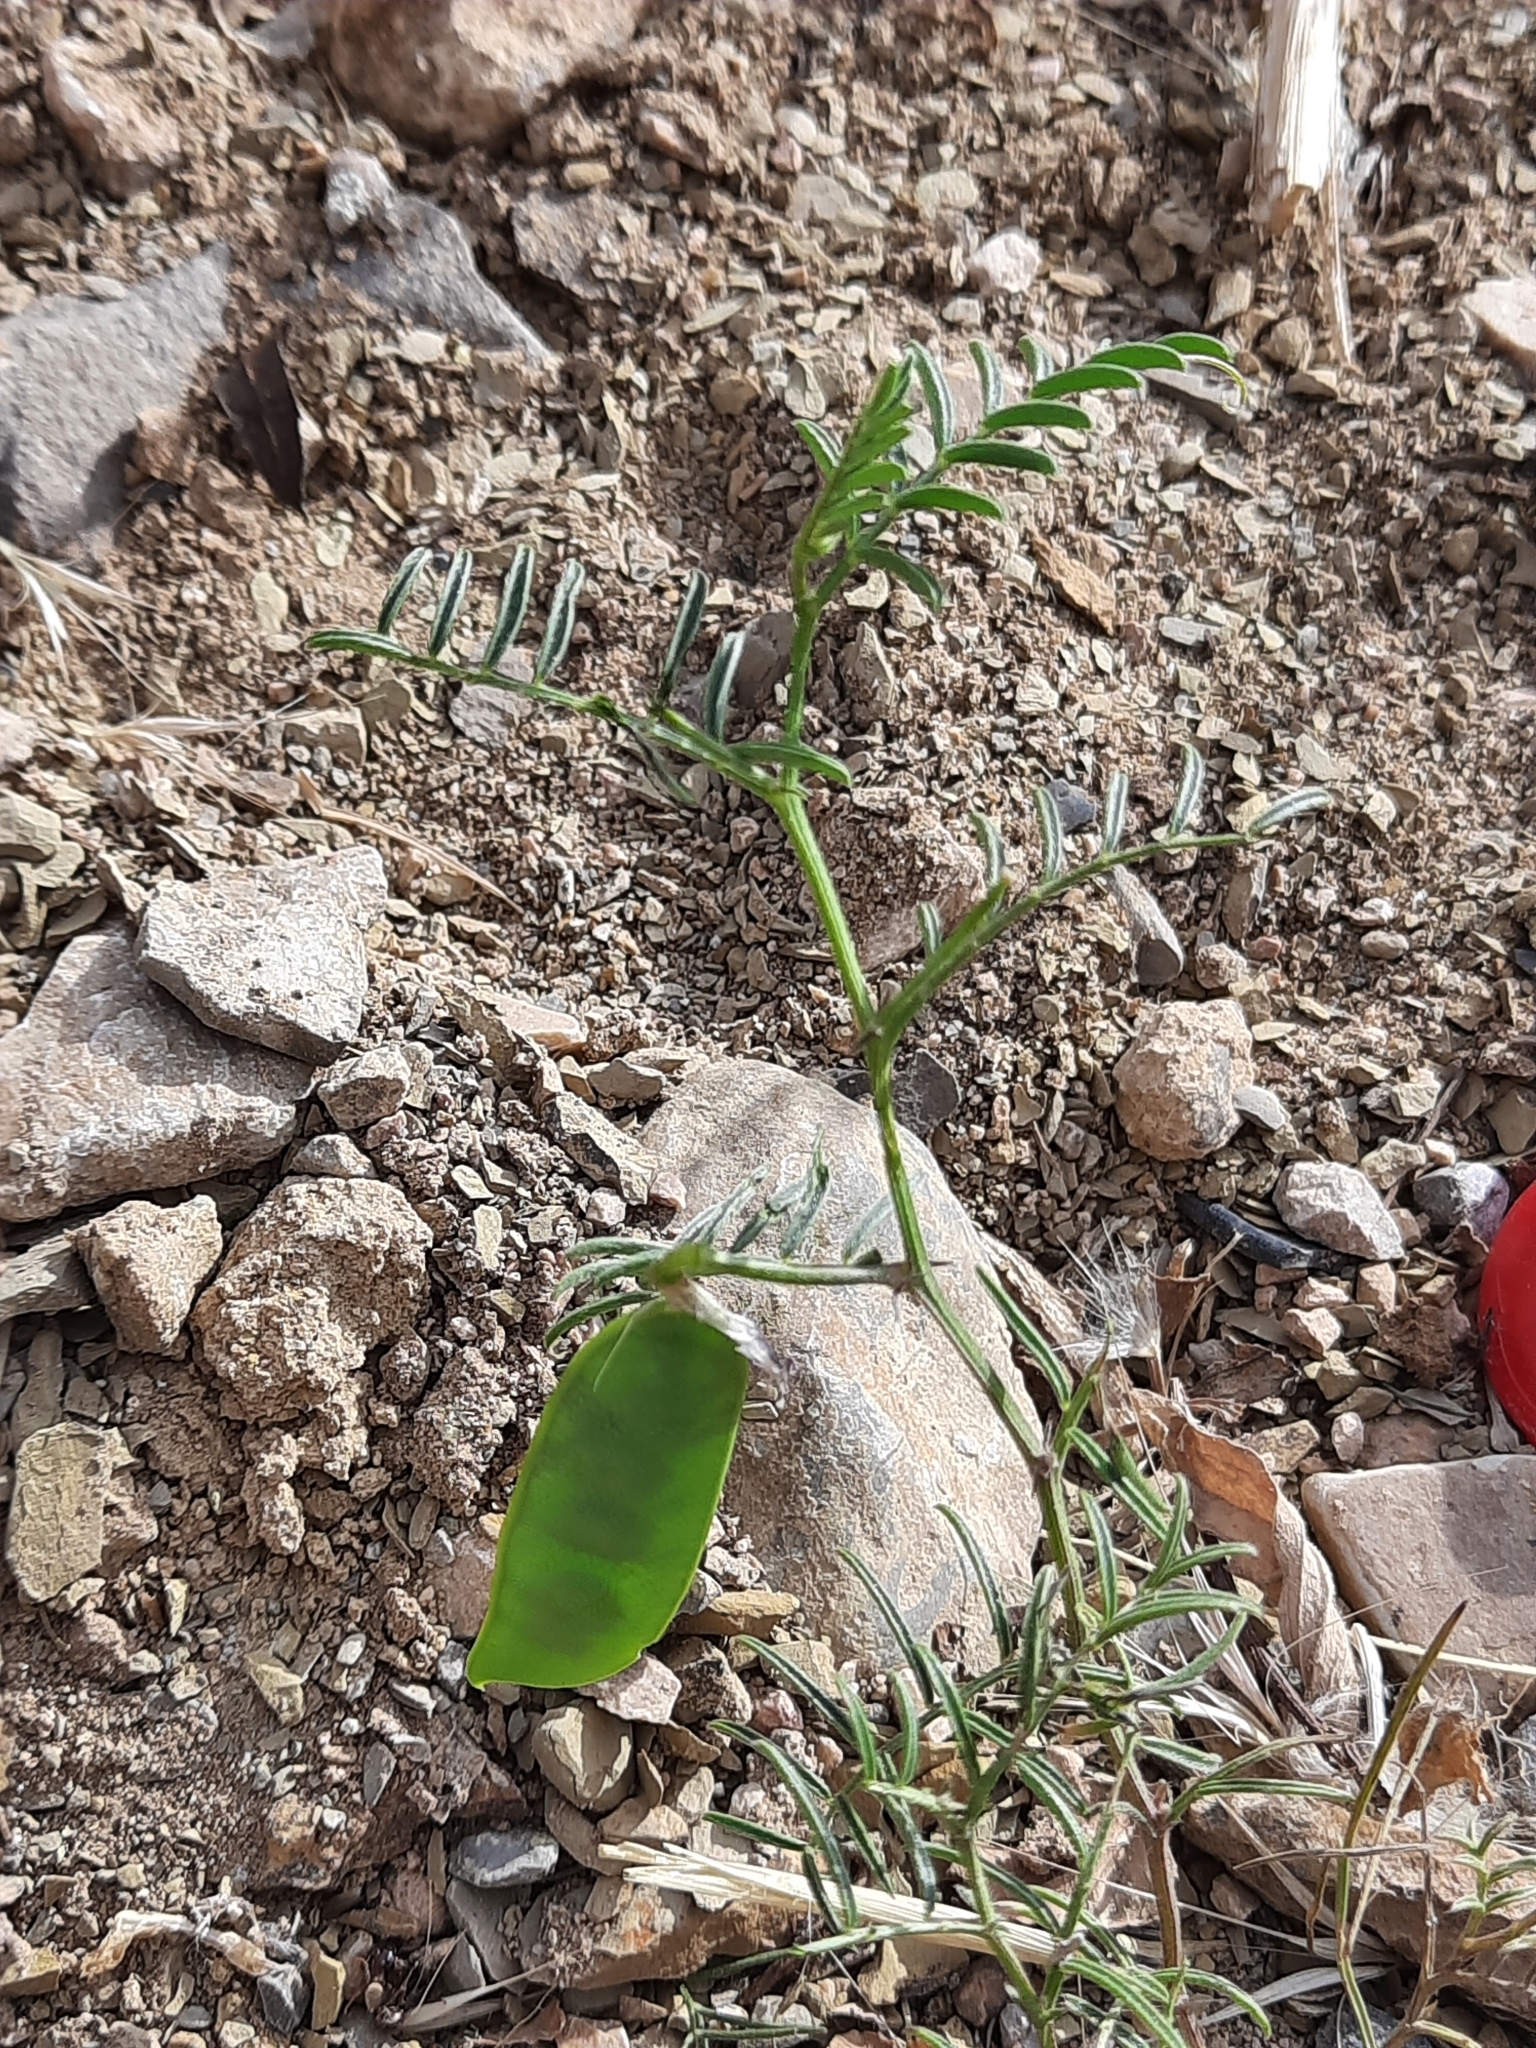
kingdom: Plantae
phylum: Tracheophyta
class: Magnoliopsida
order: Fabales
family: Fabaceae
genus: Vicia
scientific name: Vicia monantha
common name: Barn vetch
